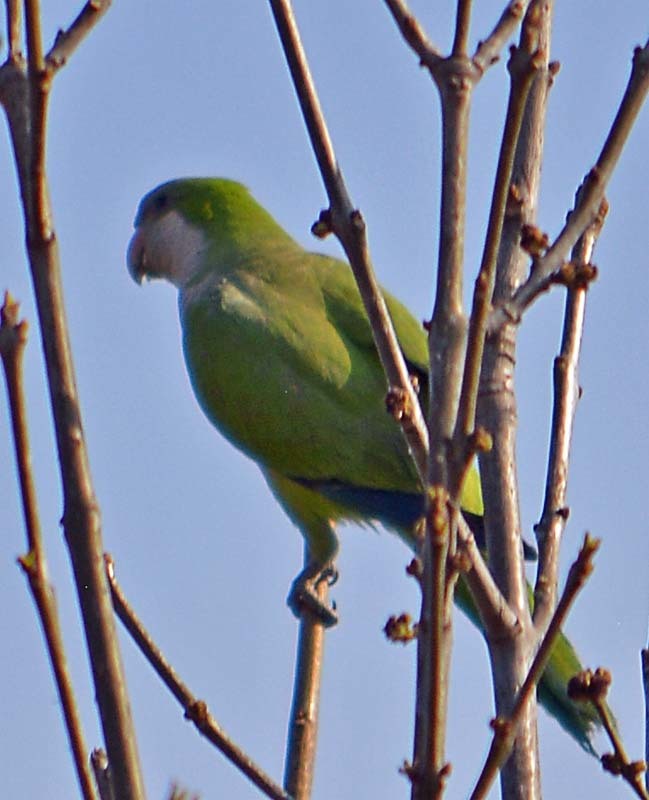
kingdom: Animalia
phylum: Chordata
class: Aves
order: Psittaciformes
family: Psittacidae
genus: Myiopsitta
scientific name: Myiopsitta monachus
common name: Monk parakeet
